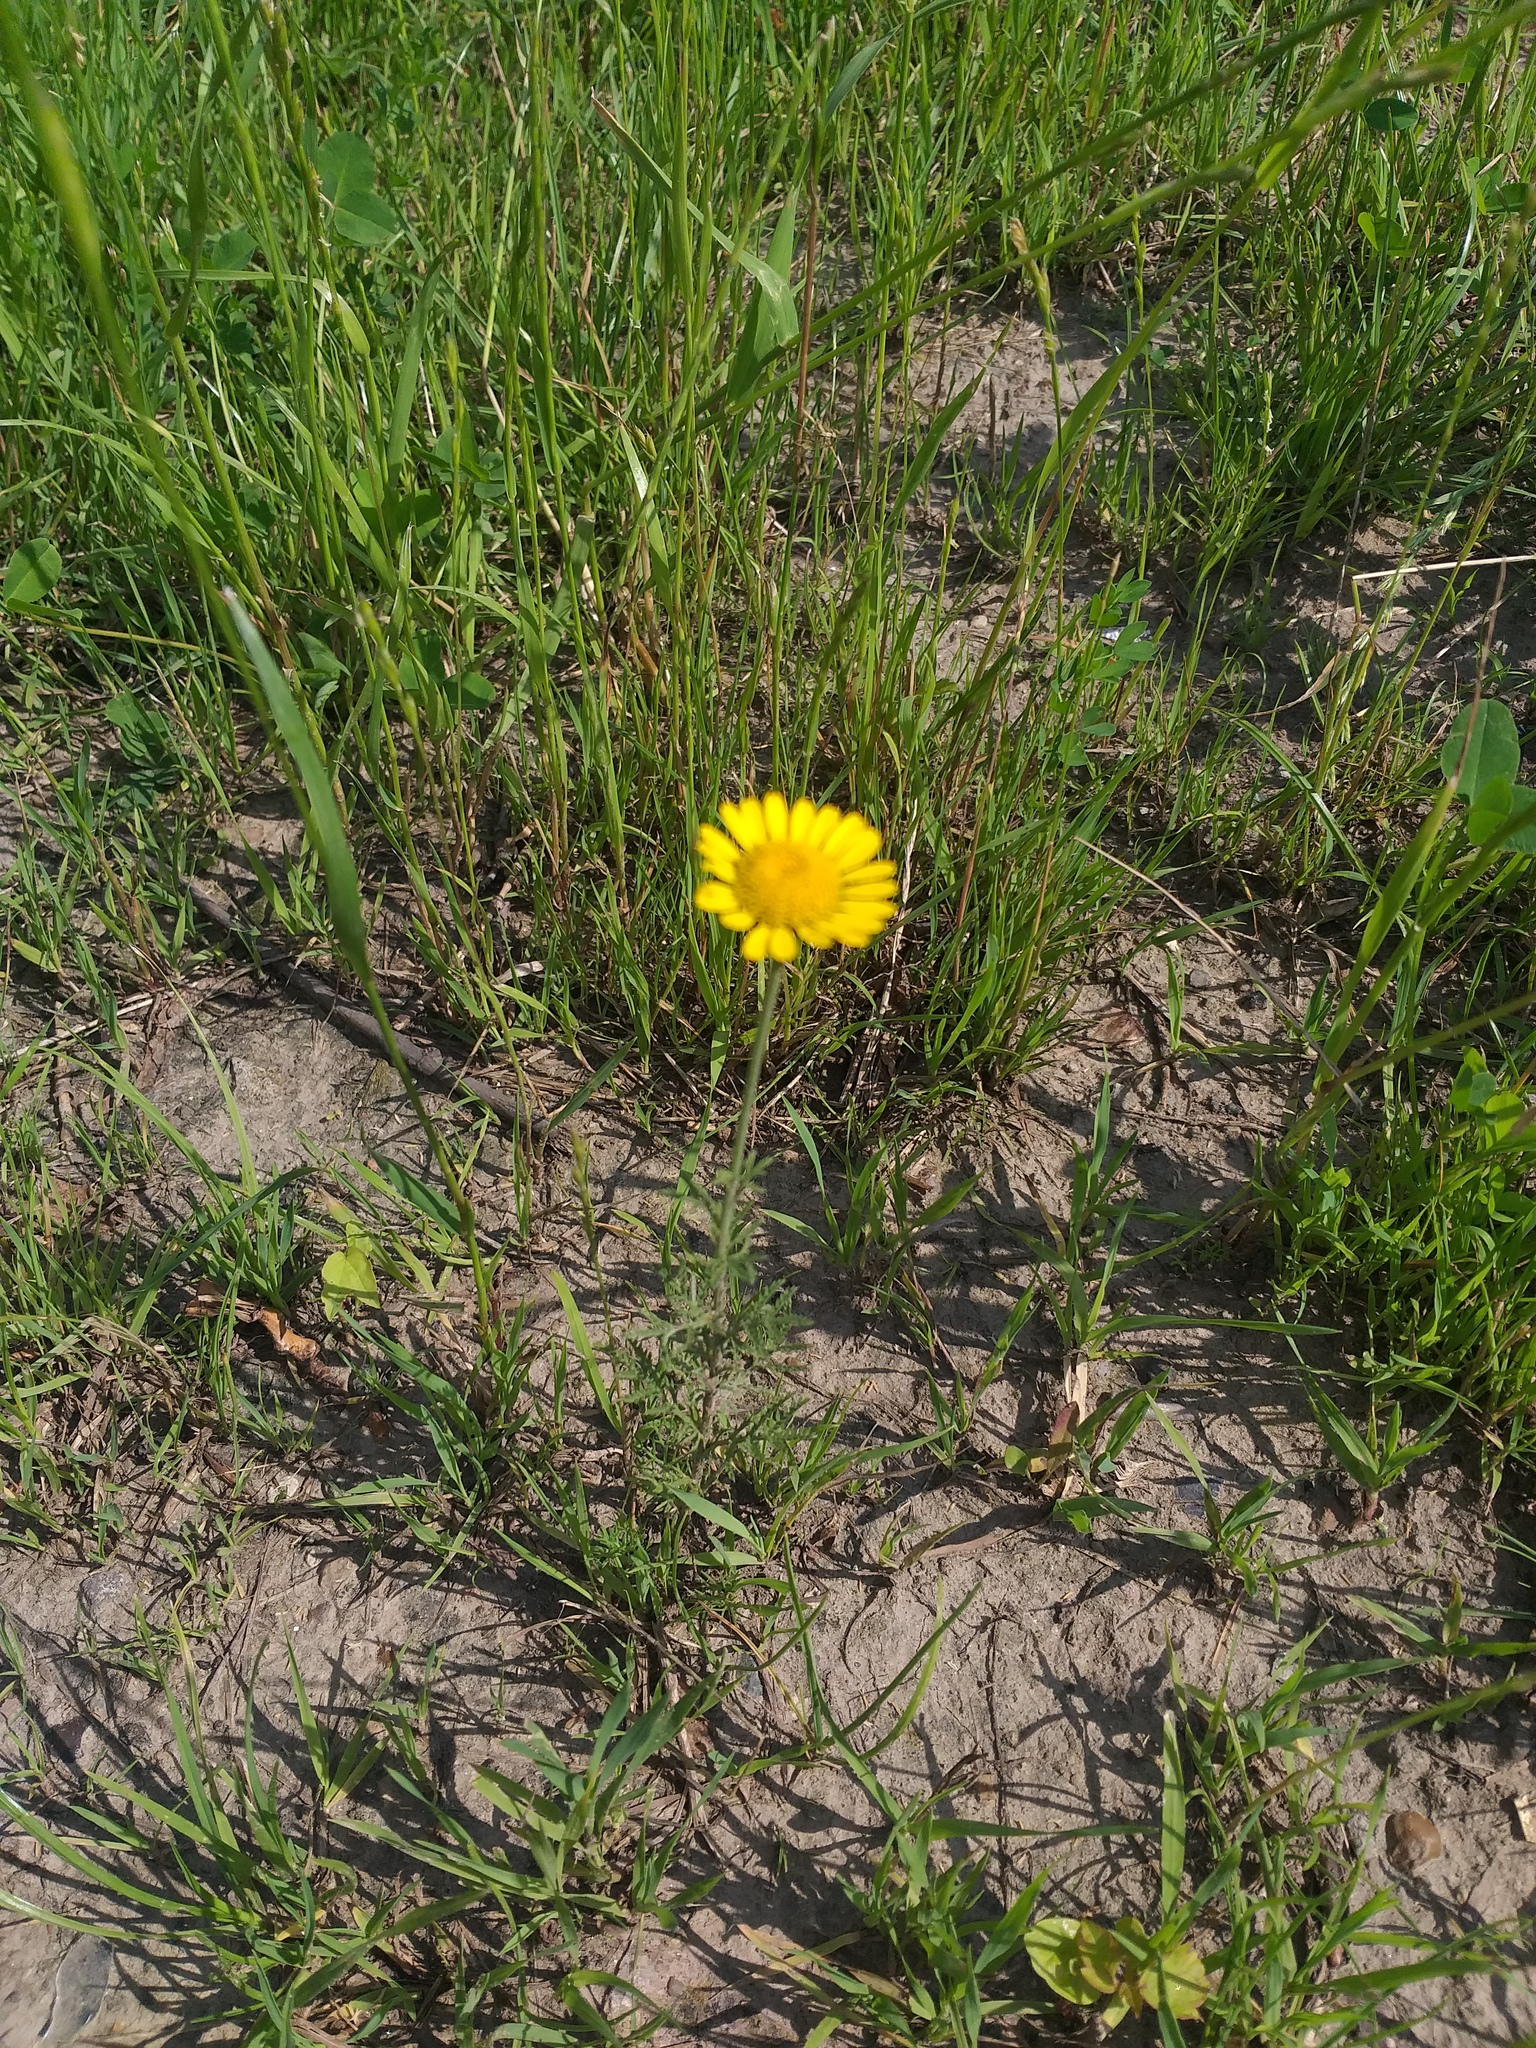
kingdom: Plantae
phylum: Tracheophyta
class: Magnoliopsida
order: Asterales
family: Asteraceae
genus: Cota
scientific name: Cota tinctoria
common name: Golden chamomile
